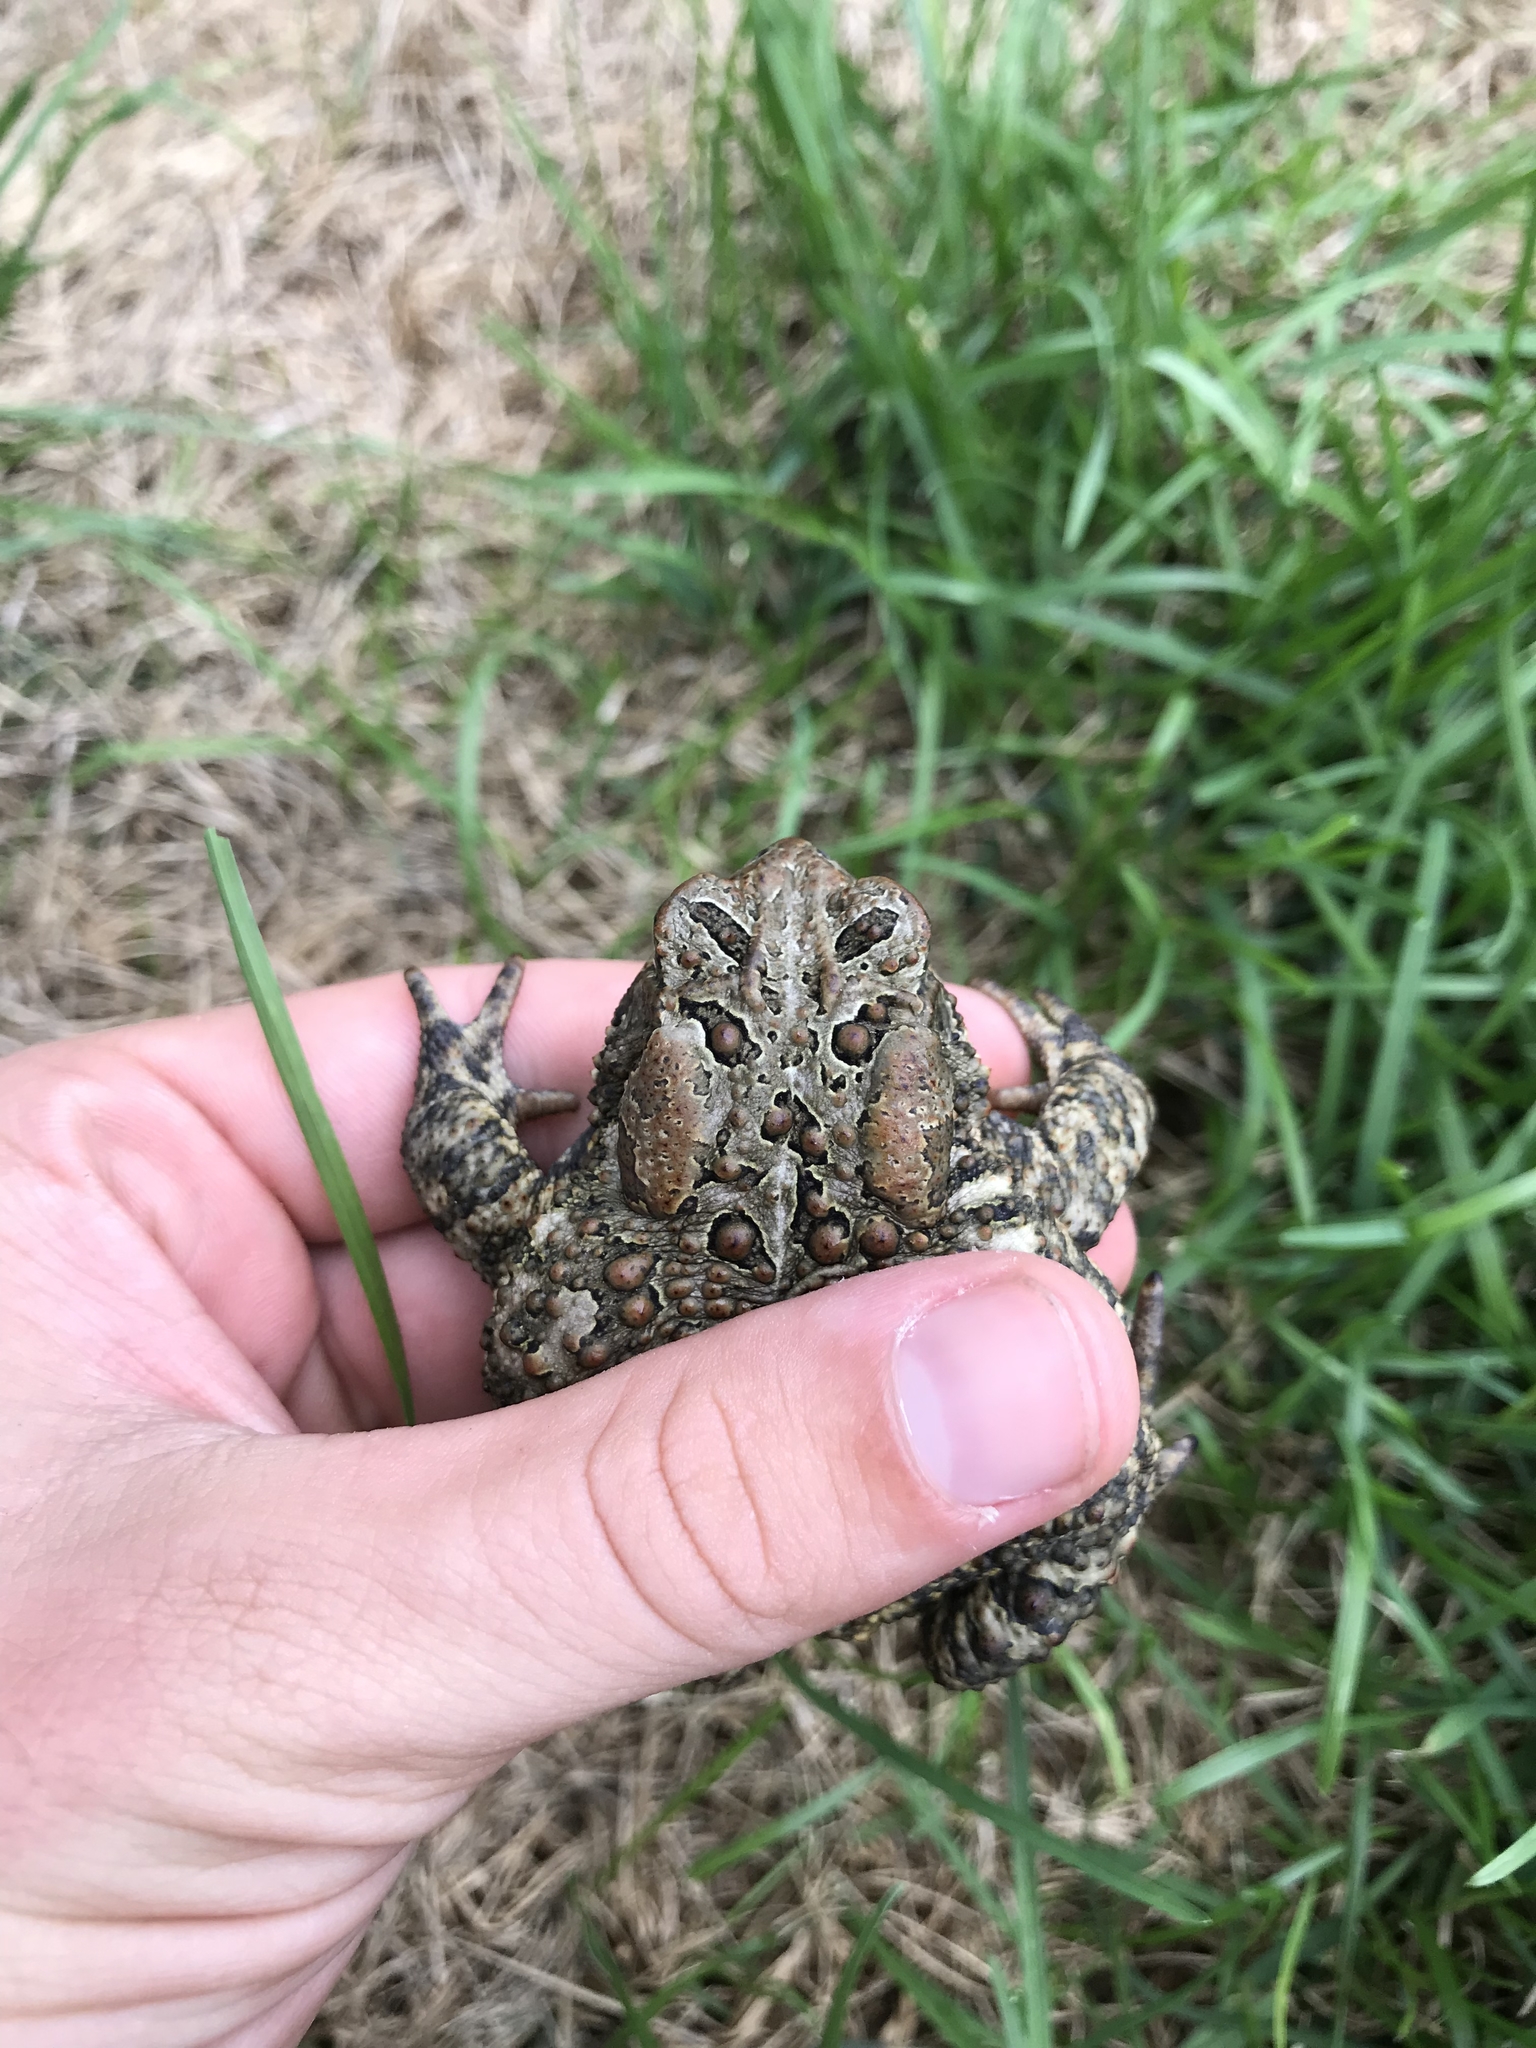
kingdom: Animalia
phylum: Chordata
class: Amphibia
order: Anura
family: Bufonidae
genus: Anaxyrus
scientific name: Anaxyrus americanus
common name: American toad
